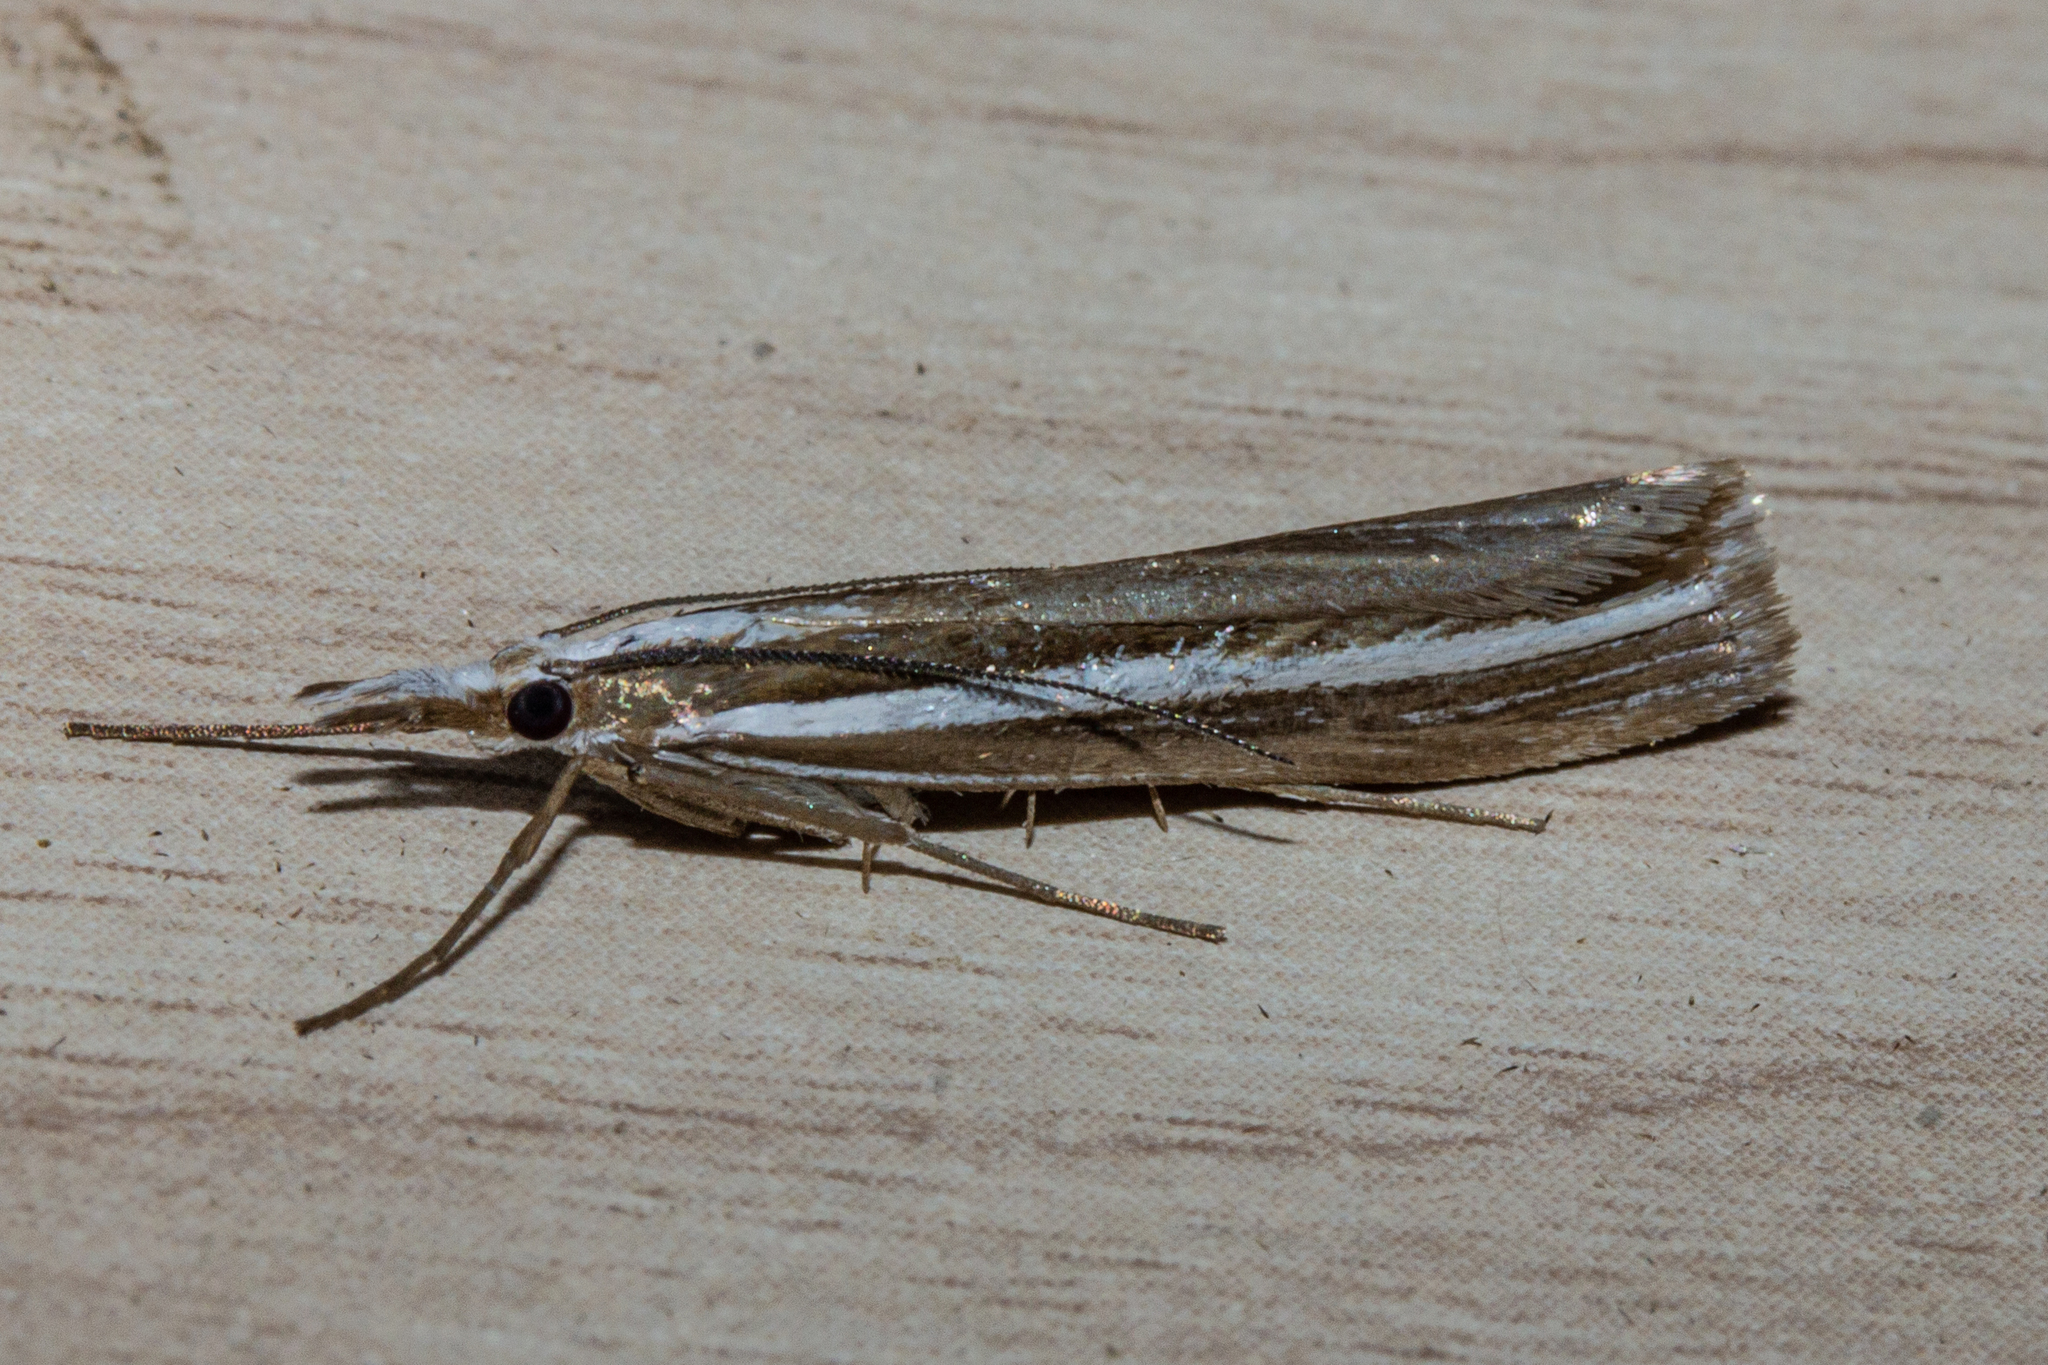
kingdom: Animalia
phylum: Arthropoda
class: Insecta
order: Lepidoptera
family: Crambidae
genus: Orocrambus
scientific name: Orocrambus enchophorus
